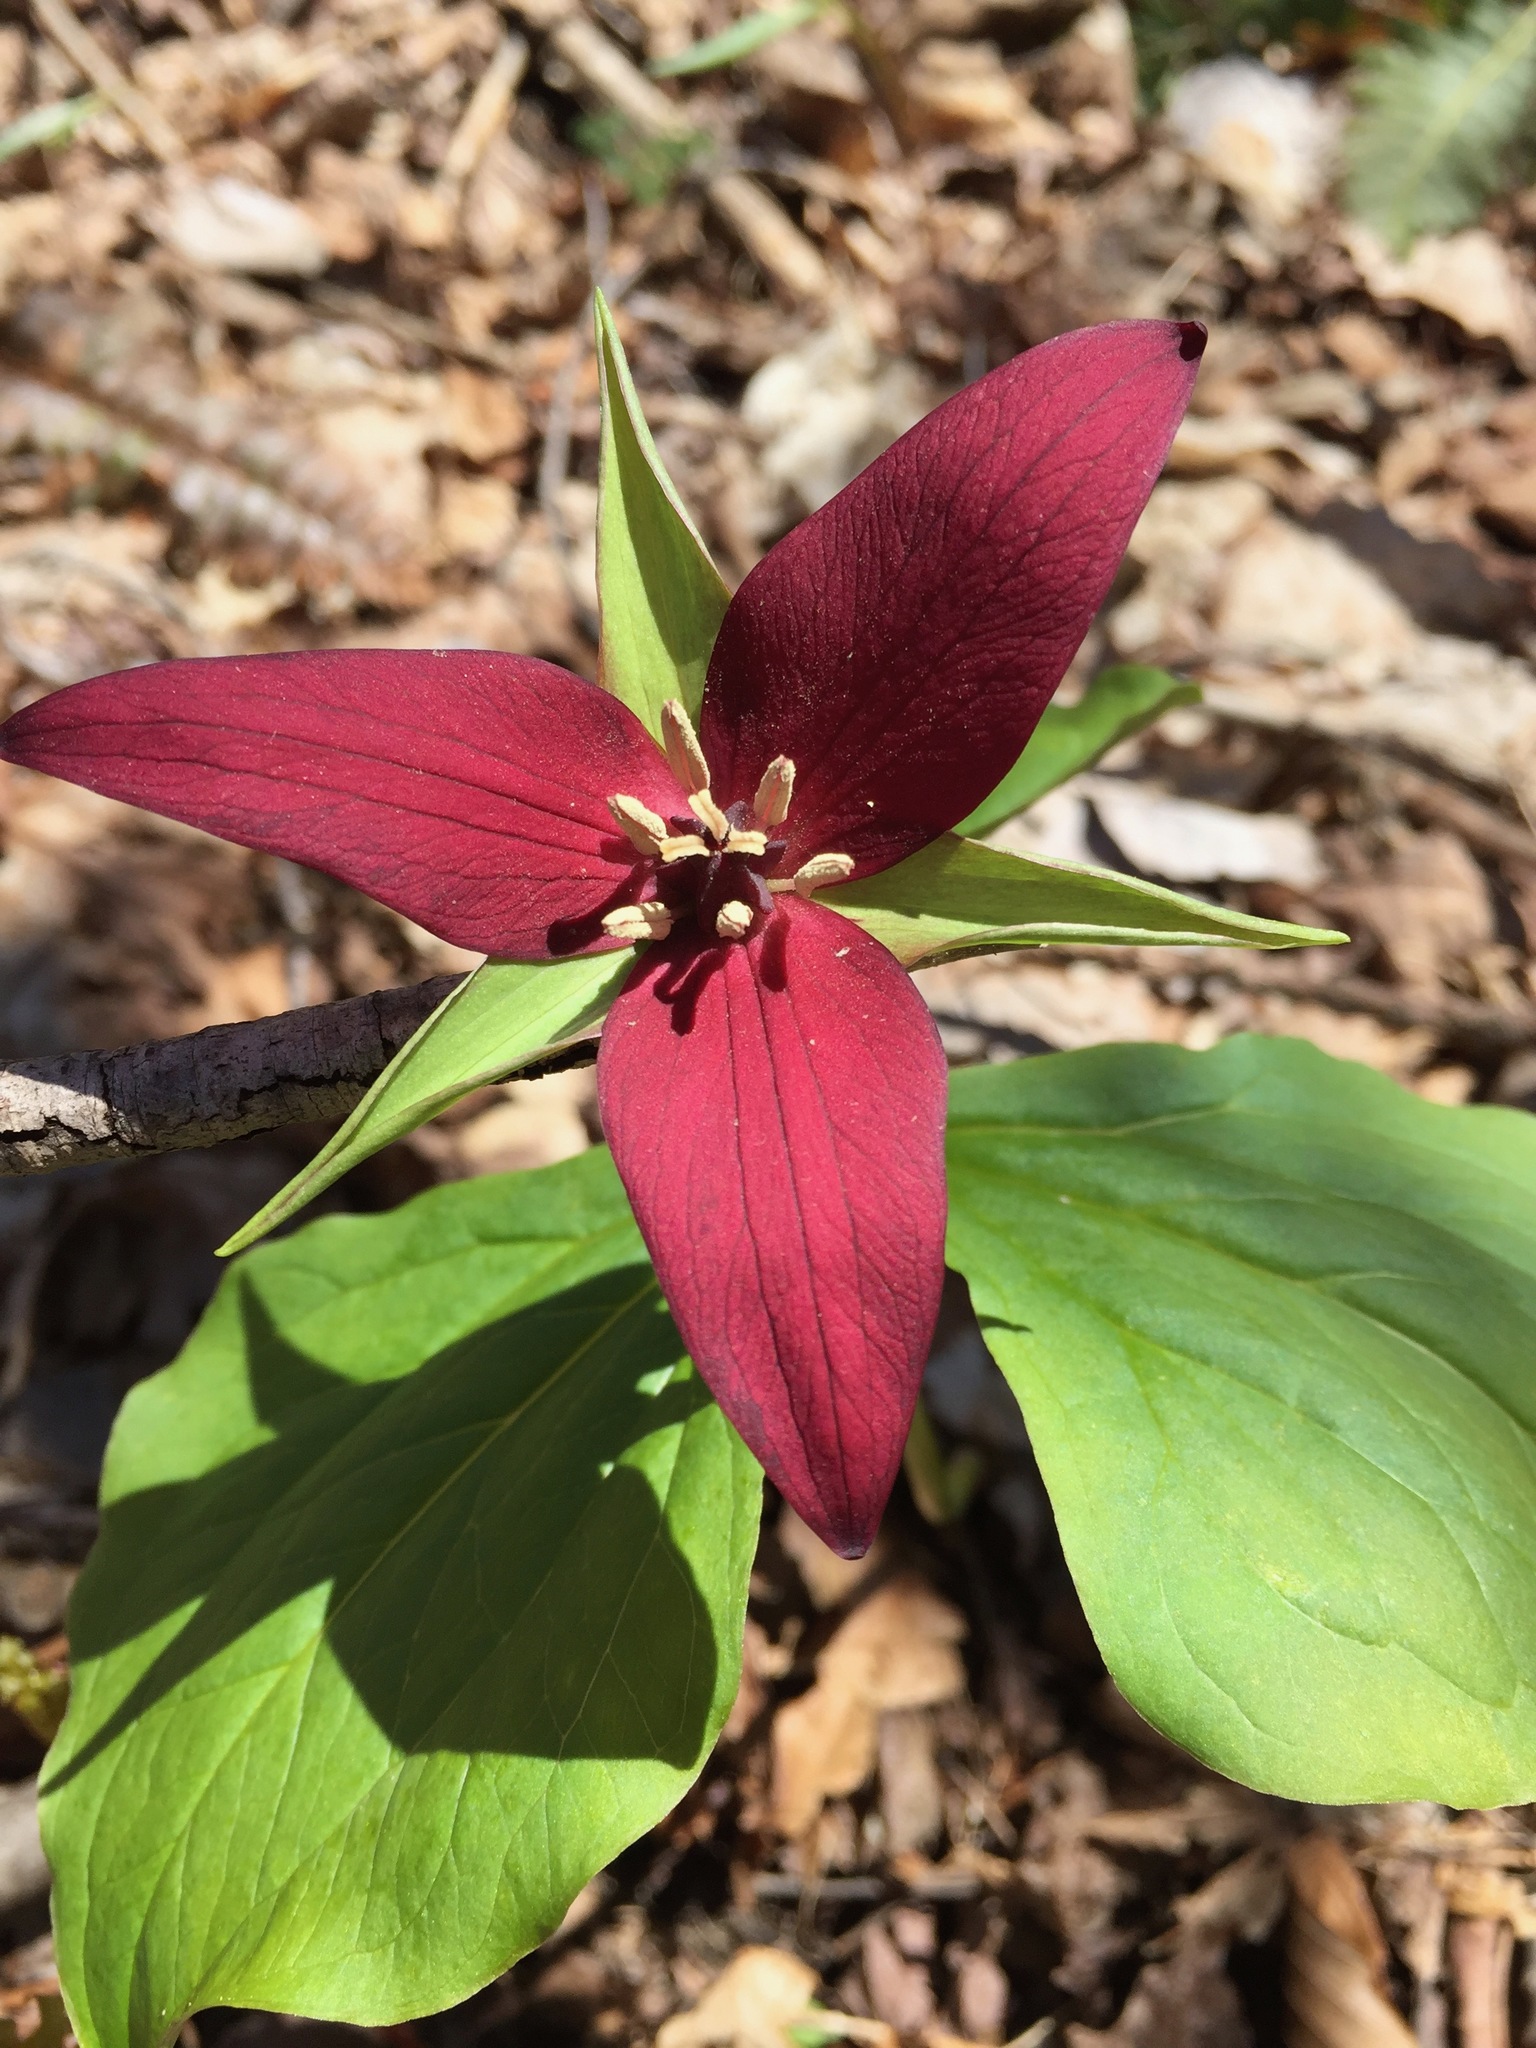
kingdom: Plantae
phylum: Tracheophyta
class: Liliopsida
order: Liliales
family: Melanthiaceae
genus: Trillium
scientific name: Trillium erectum
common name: Purple trillium
